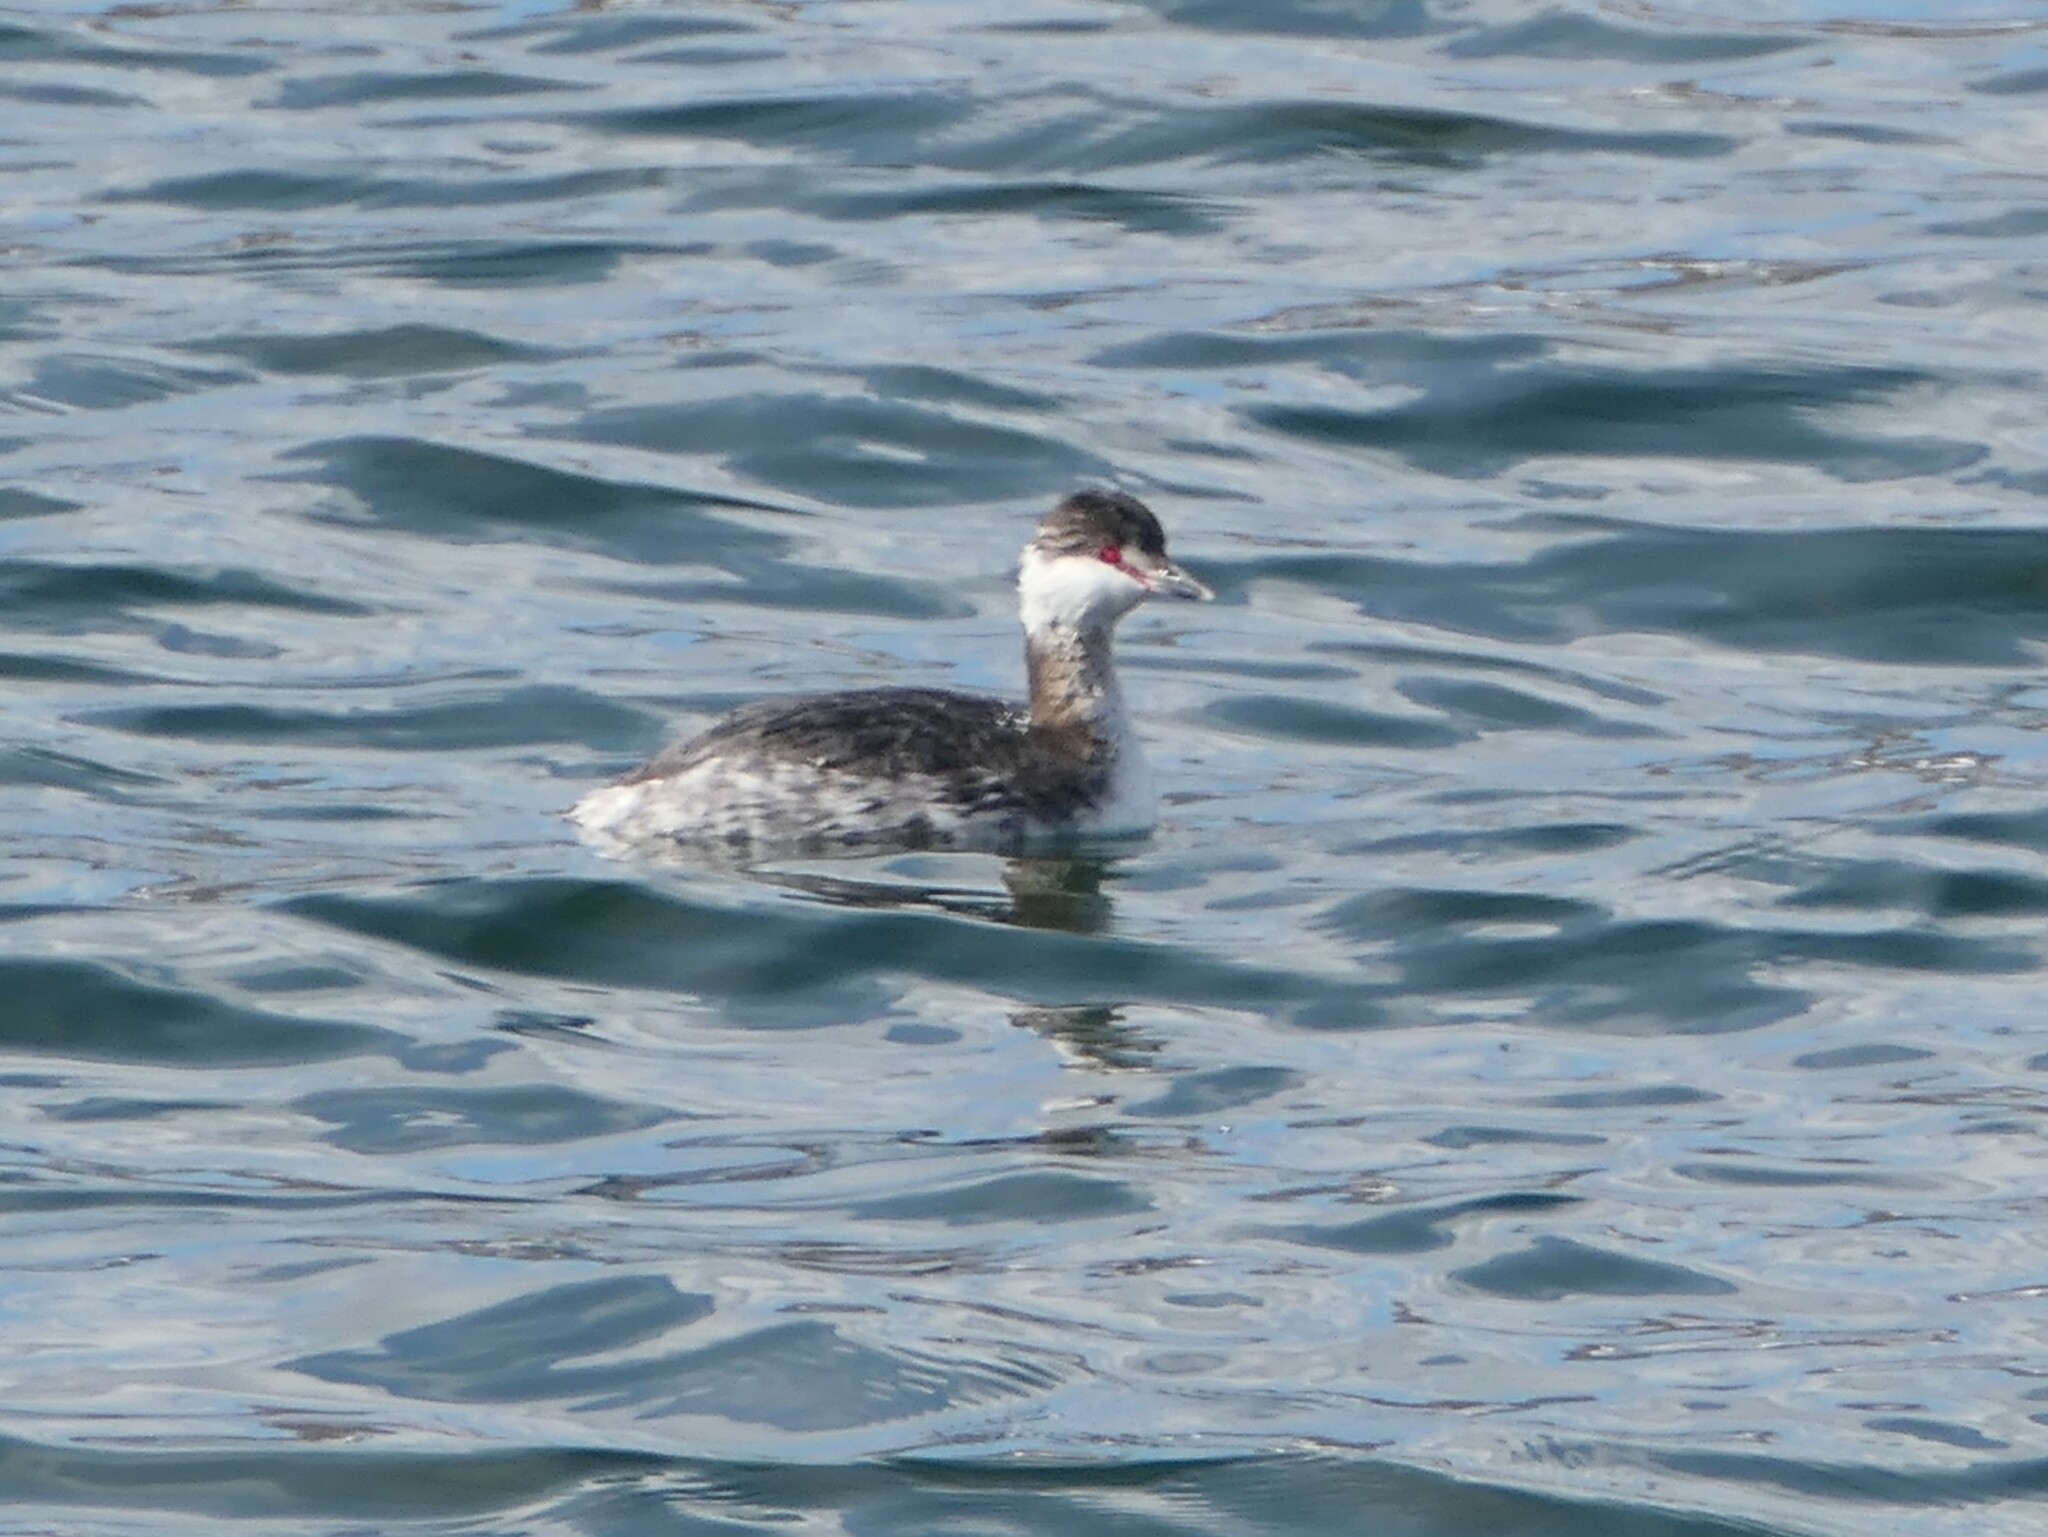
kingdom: Animalia
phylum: Chordata
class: Aves
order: Podicipediformes
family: Podicipedidae
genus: Podiceps
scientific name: Podiceps auritus
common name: Horned grebe
